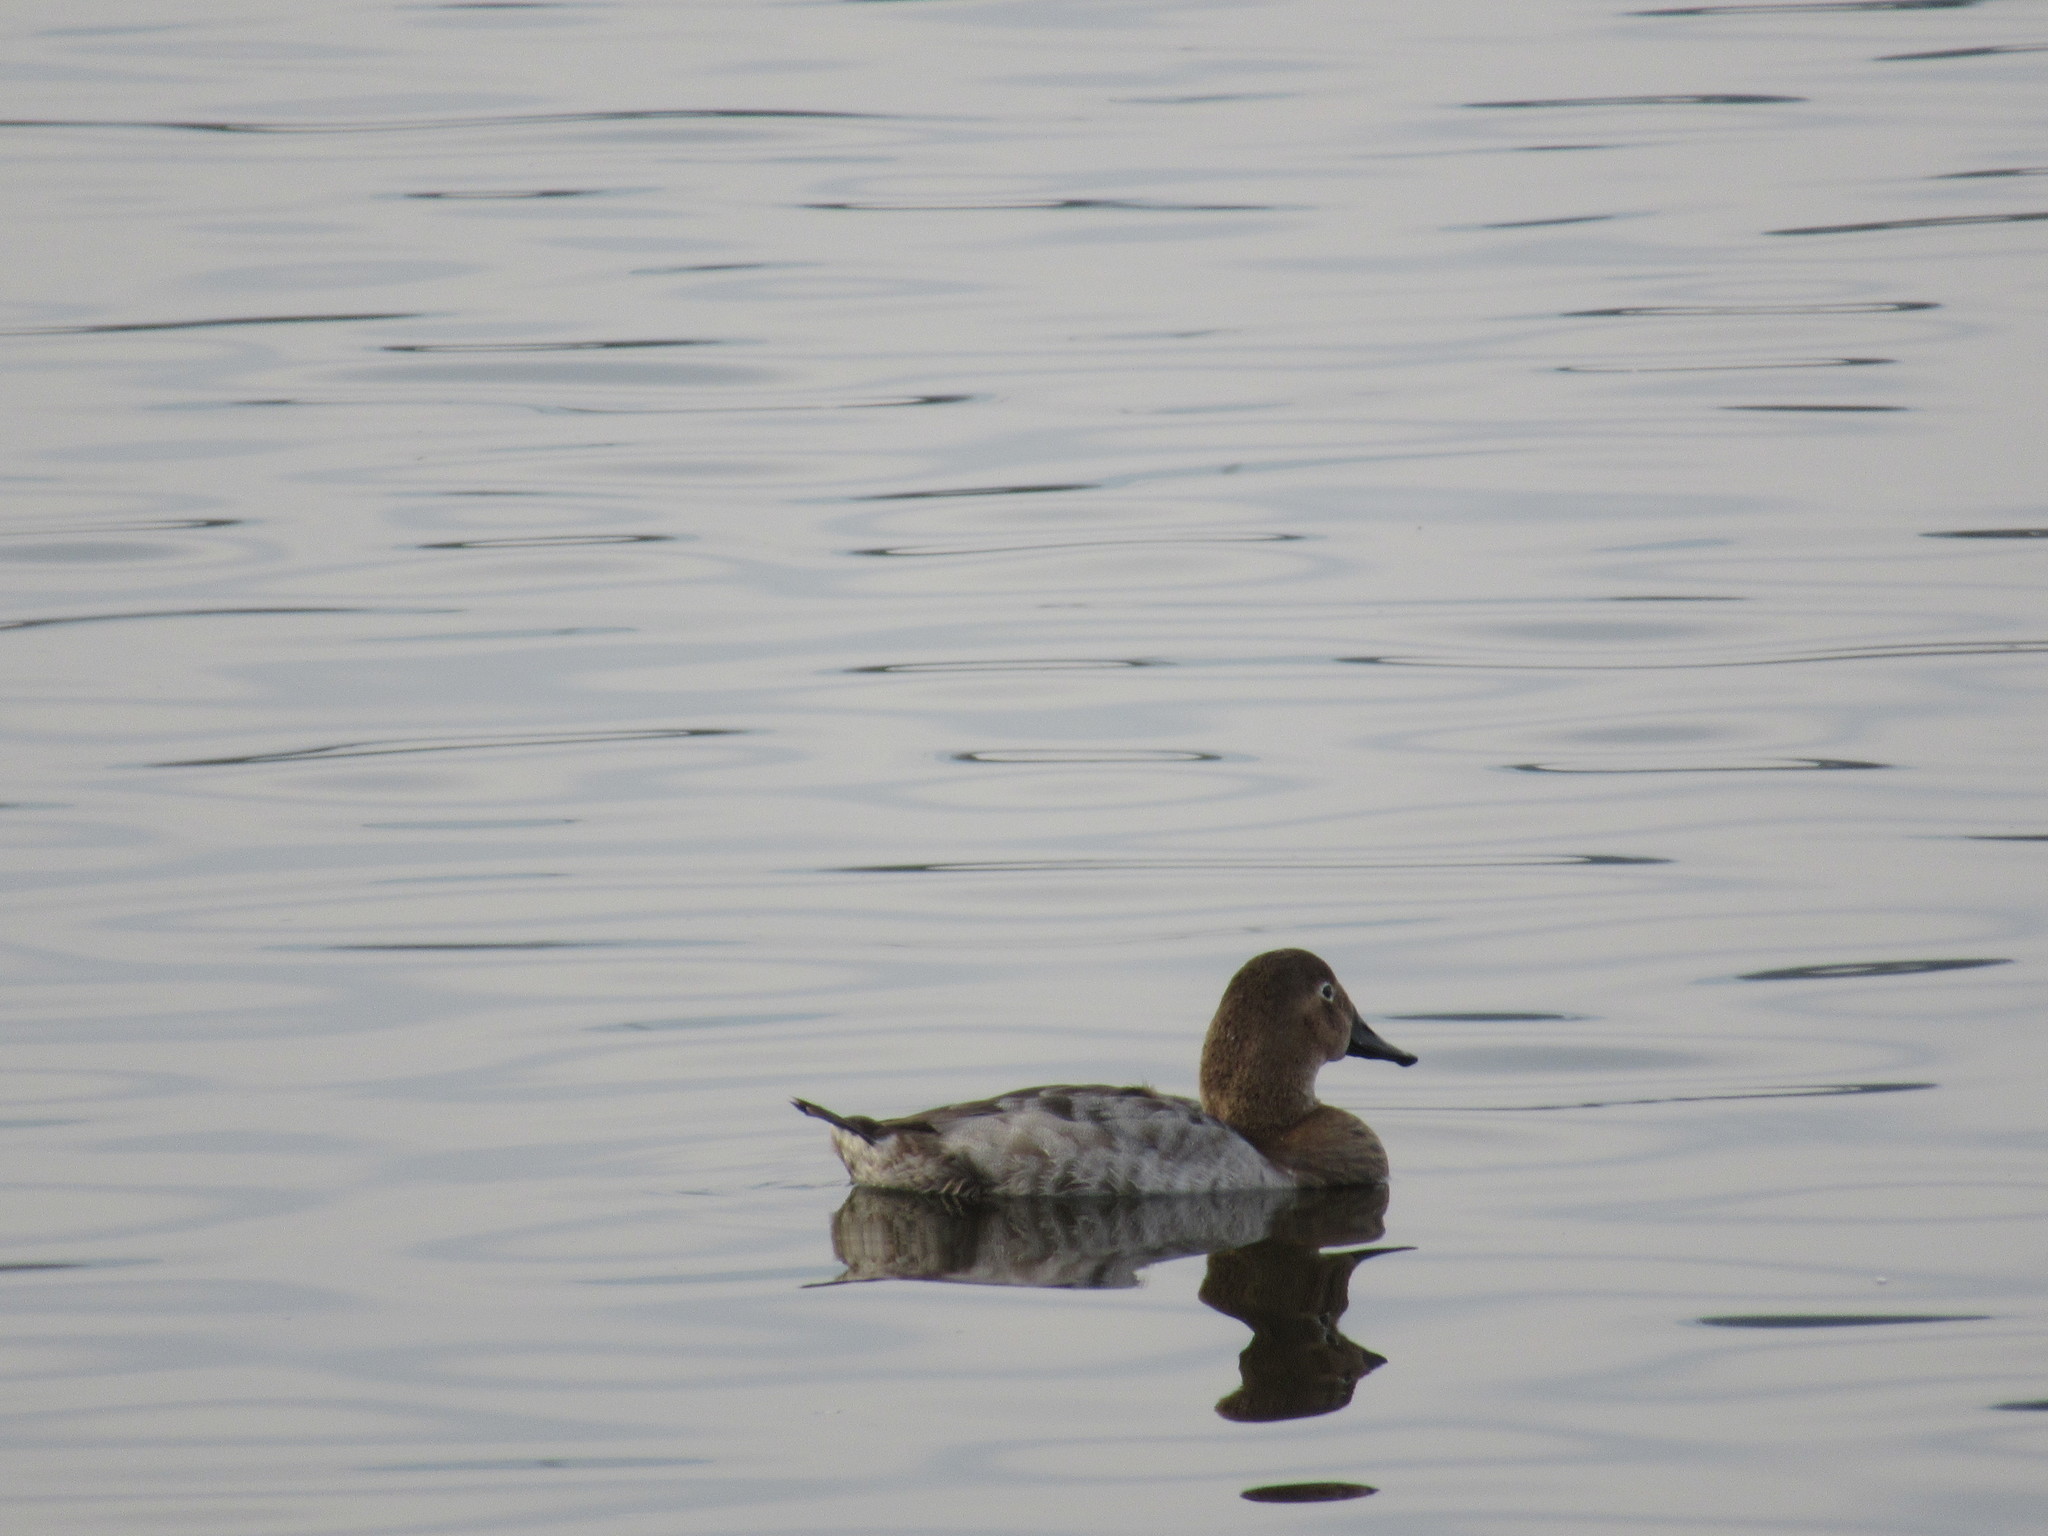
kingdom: Animalia
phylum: Chordata
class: Aves
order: Anseriformes
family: Anatidae
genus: Aythya
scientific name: Aythya valisineria
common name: Canvasback
